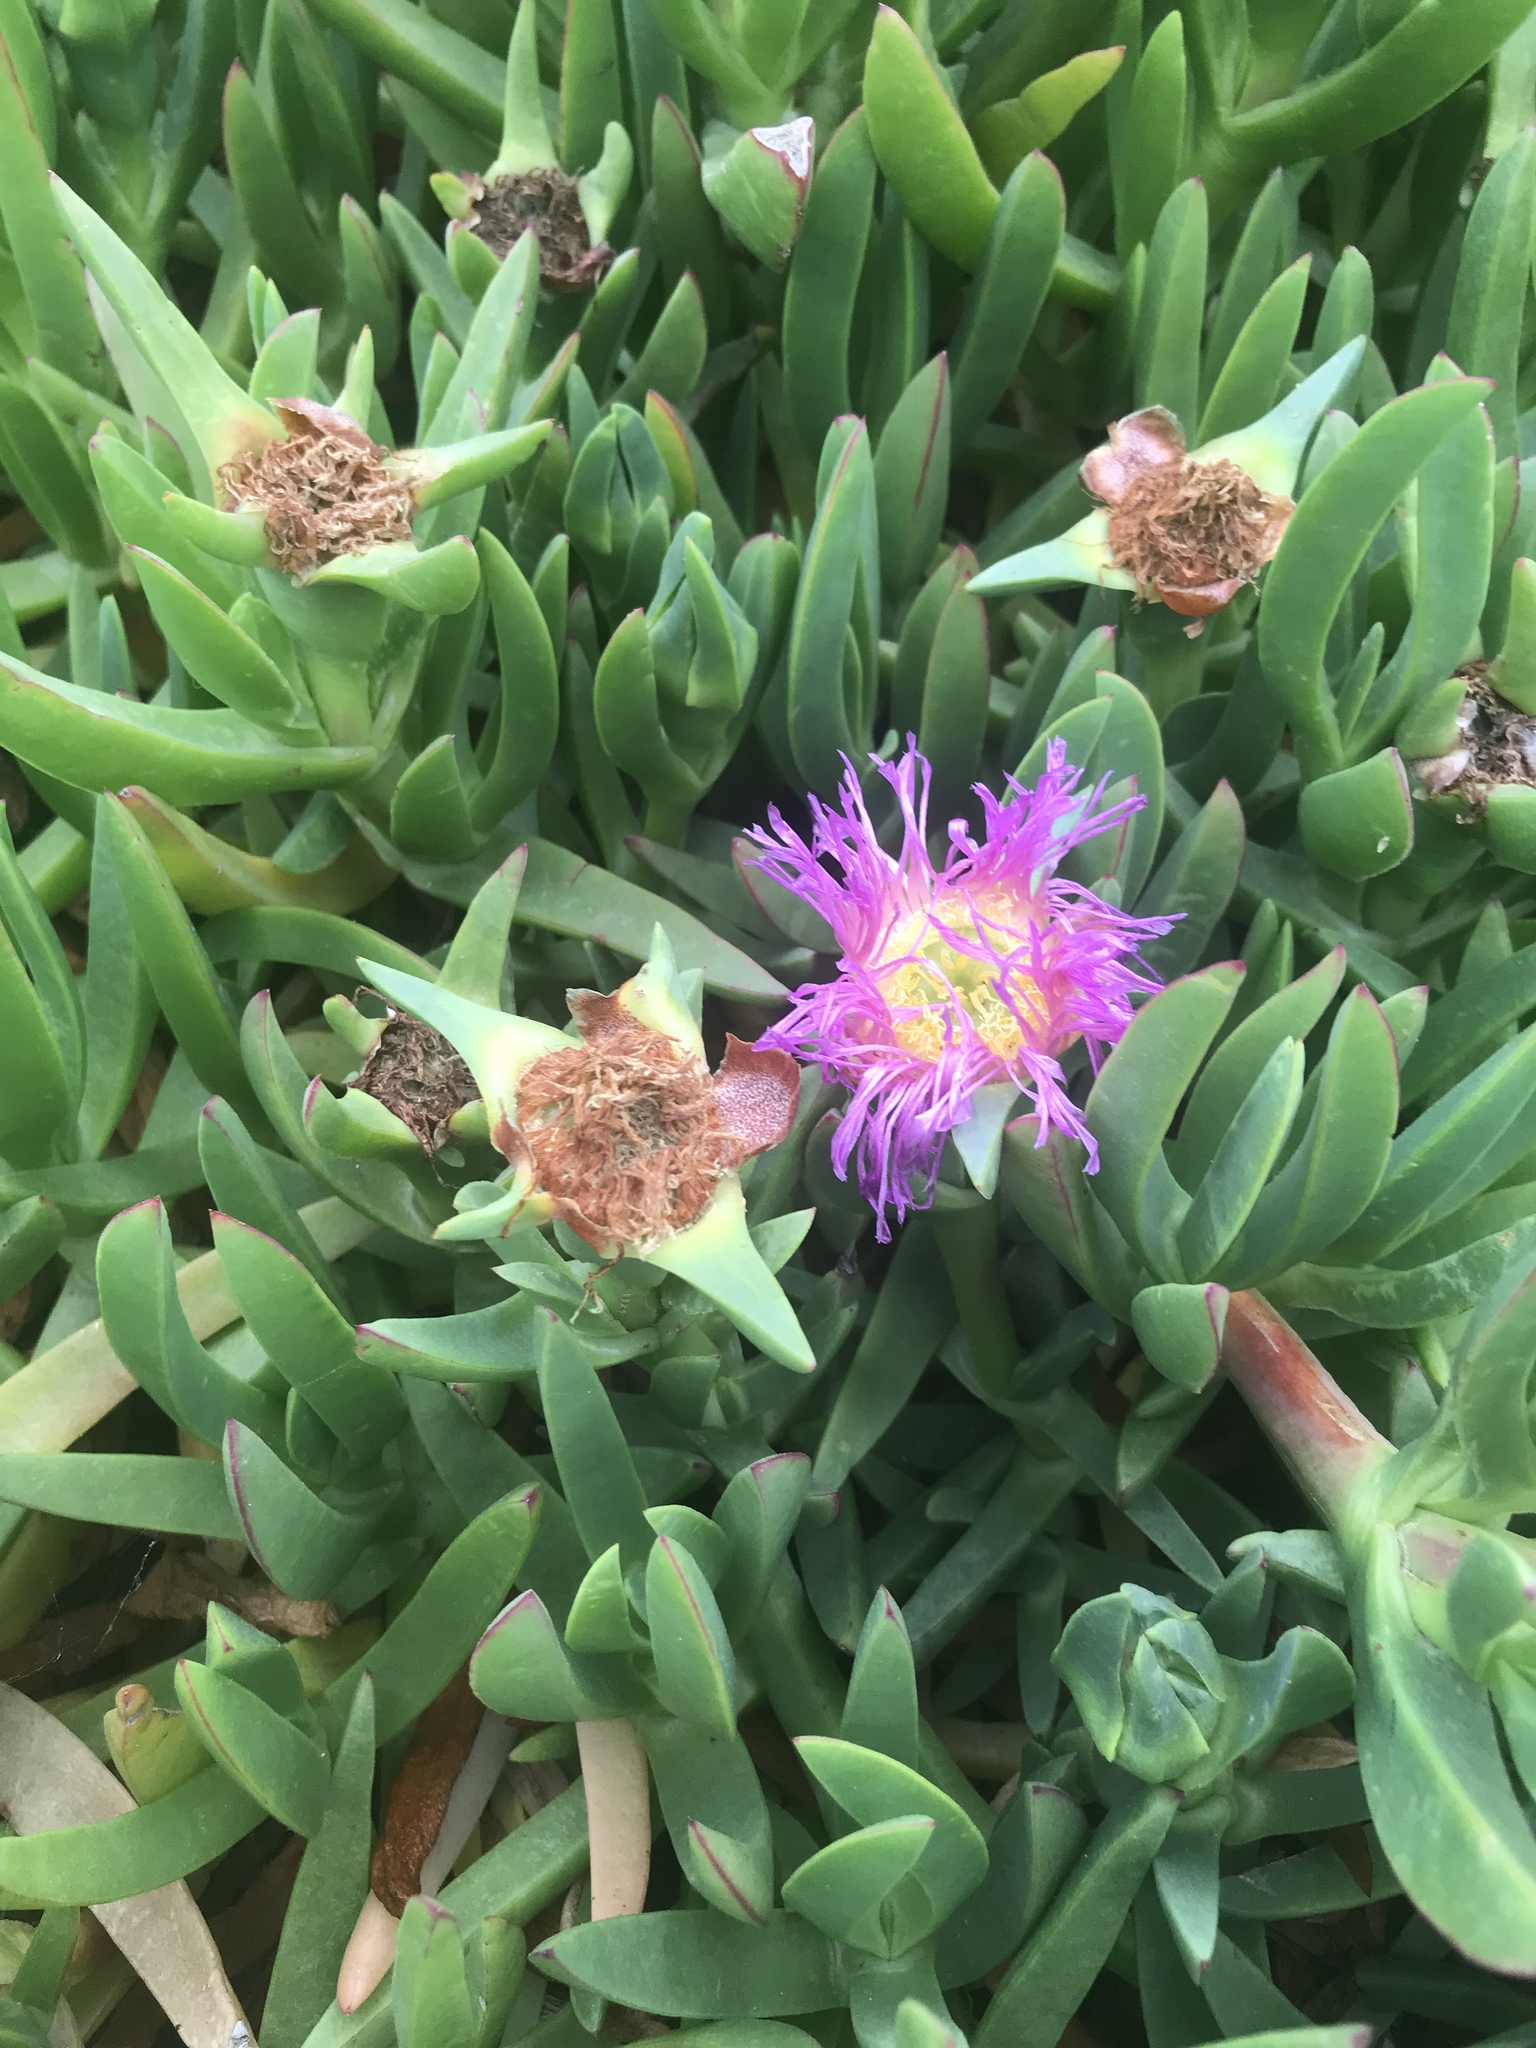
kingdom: Plantae
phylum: Tracheophyta
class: Magnoliopsida
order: Caryophyllales
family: Aizoaceae
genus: Carpobrotus
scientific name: Carpobrotus edulis
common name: Hottentot-fig
